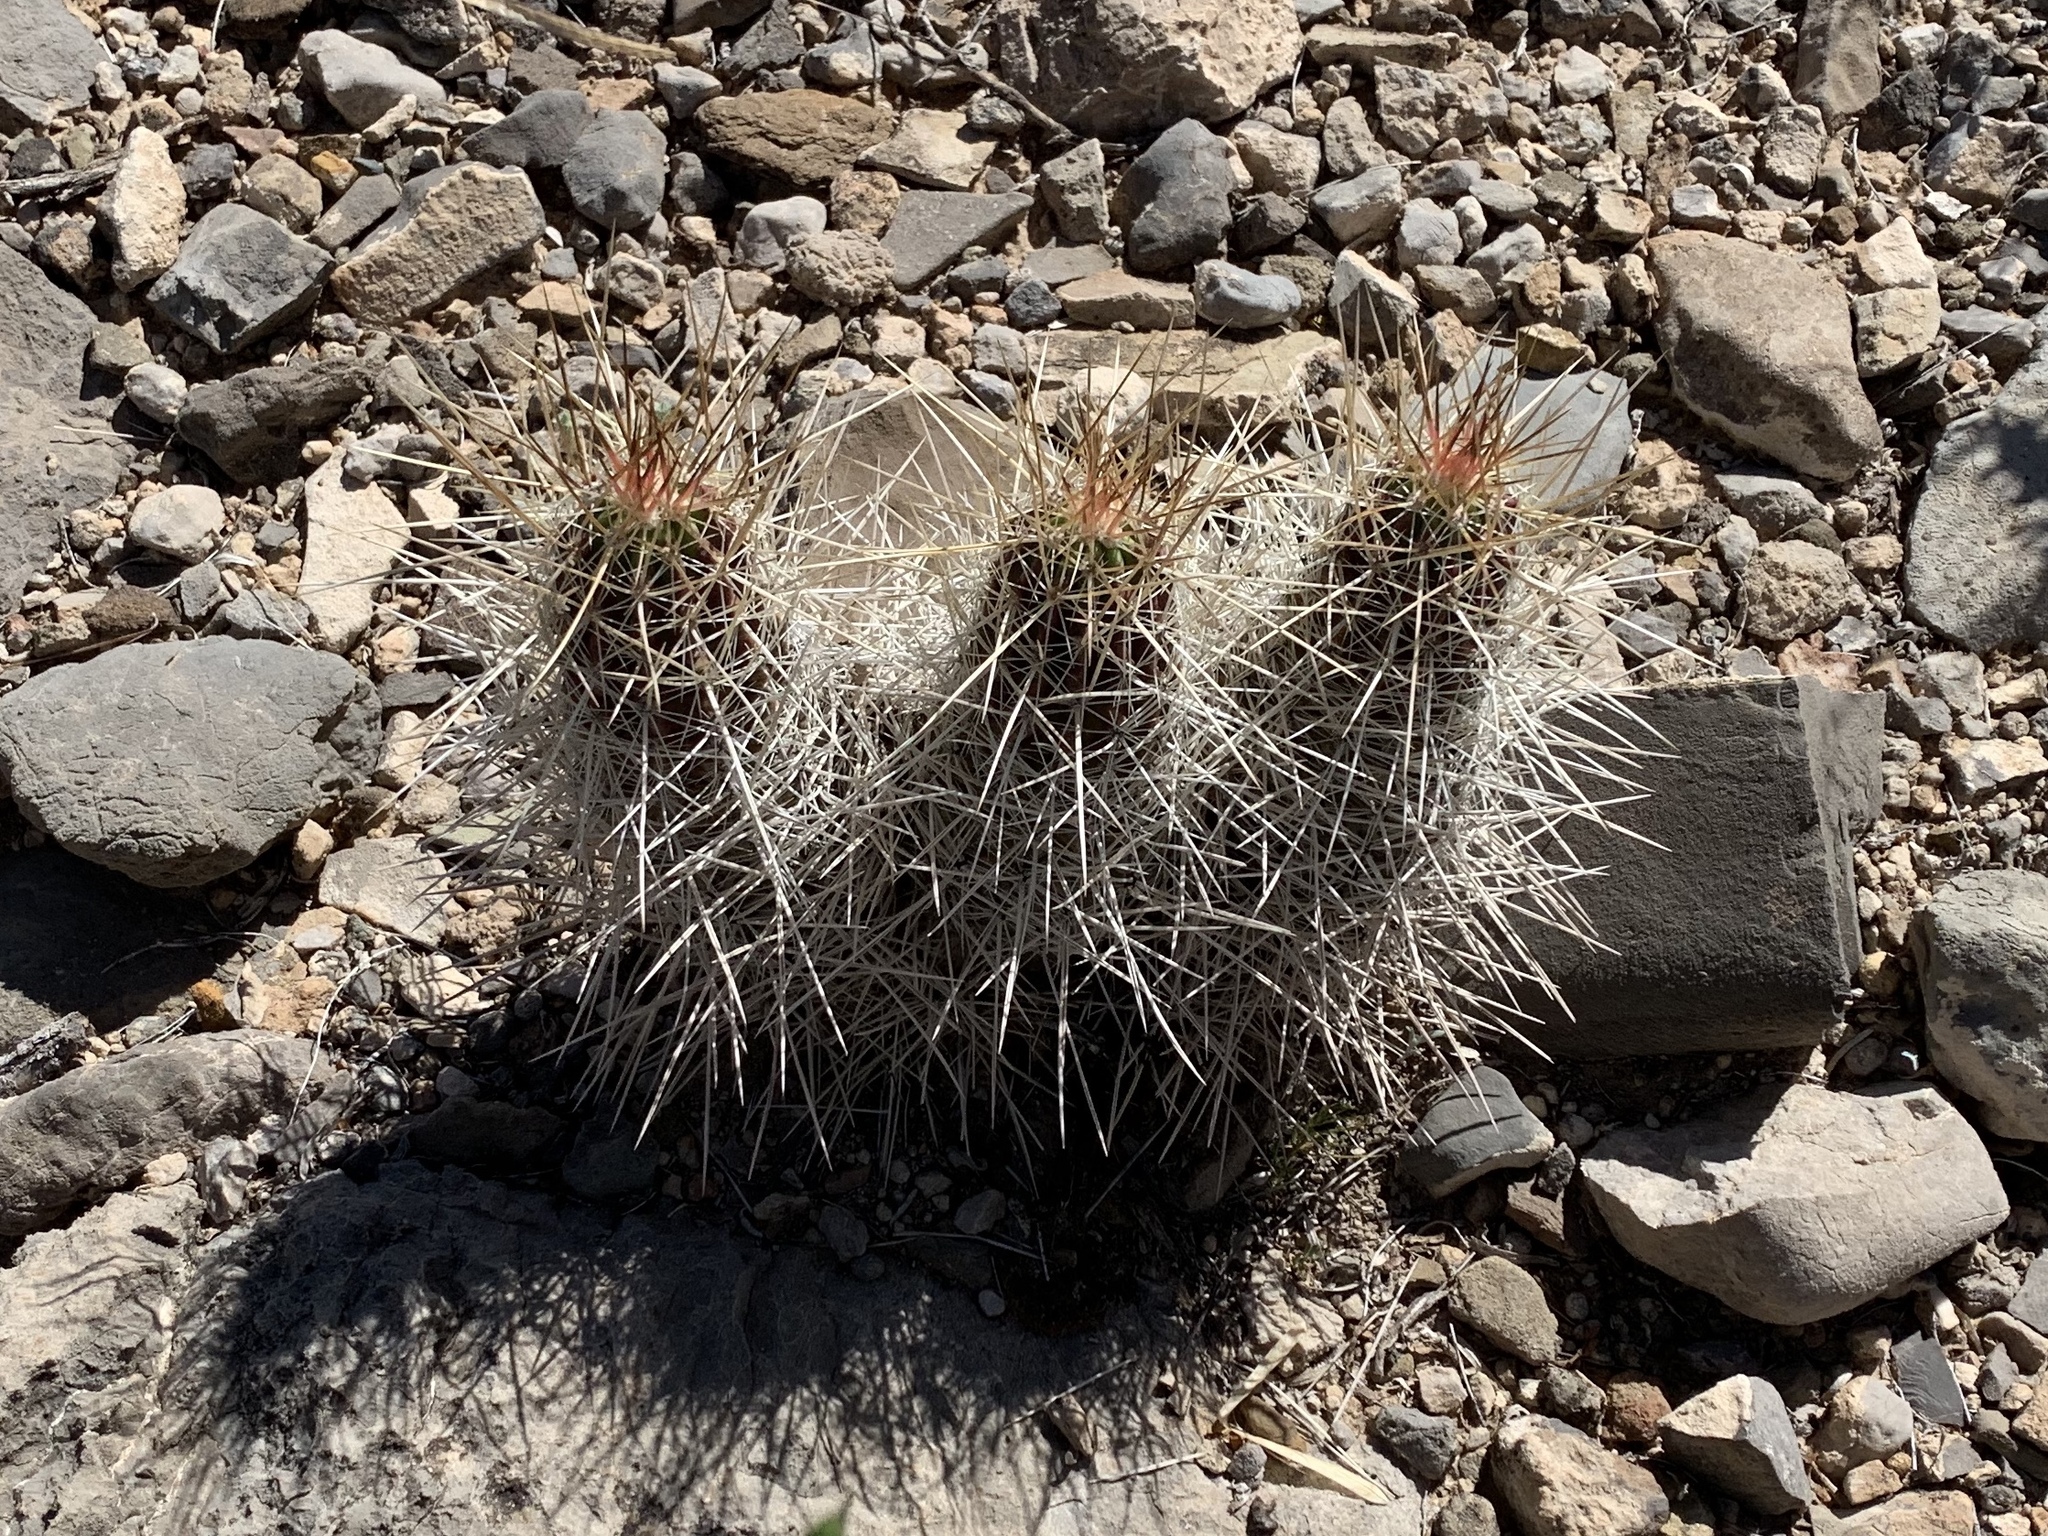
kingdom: Plantae
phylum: Tracheophyta
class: Magnoliopsida
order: Caryophyllales
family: Cactaceae
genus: Echinocereus
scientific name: Echinocereus stramineus
